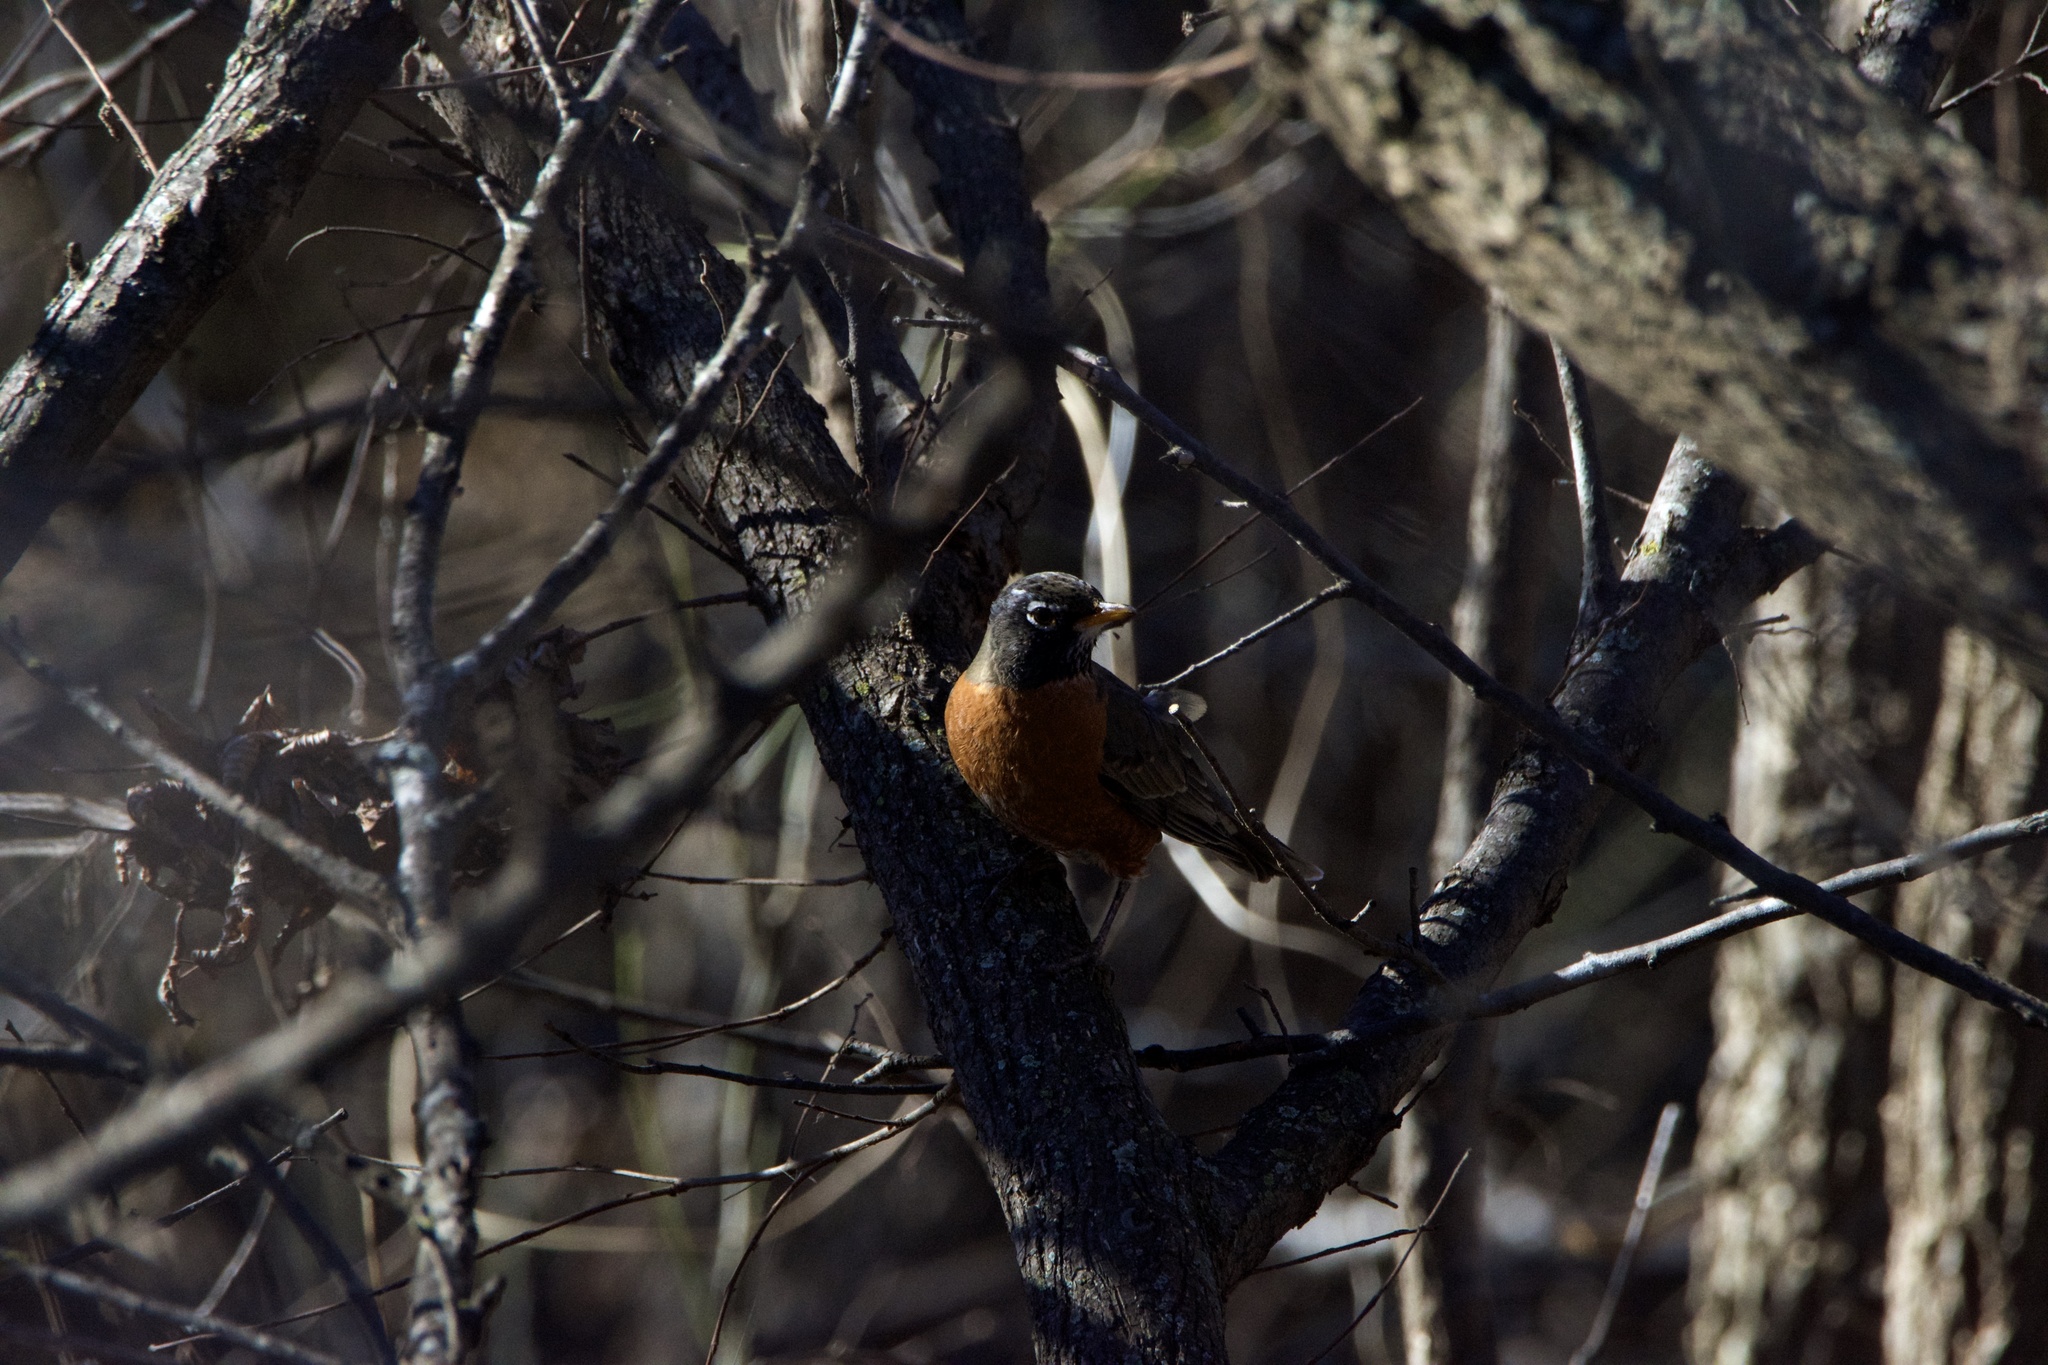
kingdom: Animalia
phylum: Chordata
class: Aves
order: Passeriformes
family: Turdidae
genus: Turdus
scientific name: Turdus migratorius
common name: American robin
